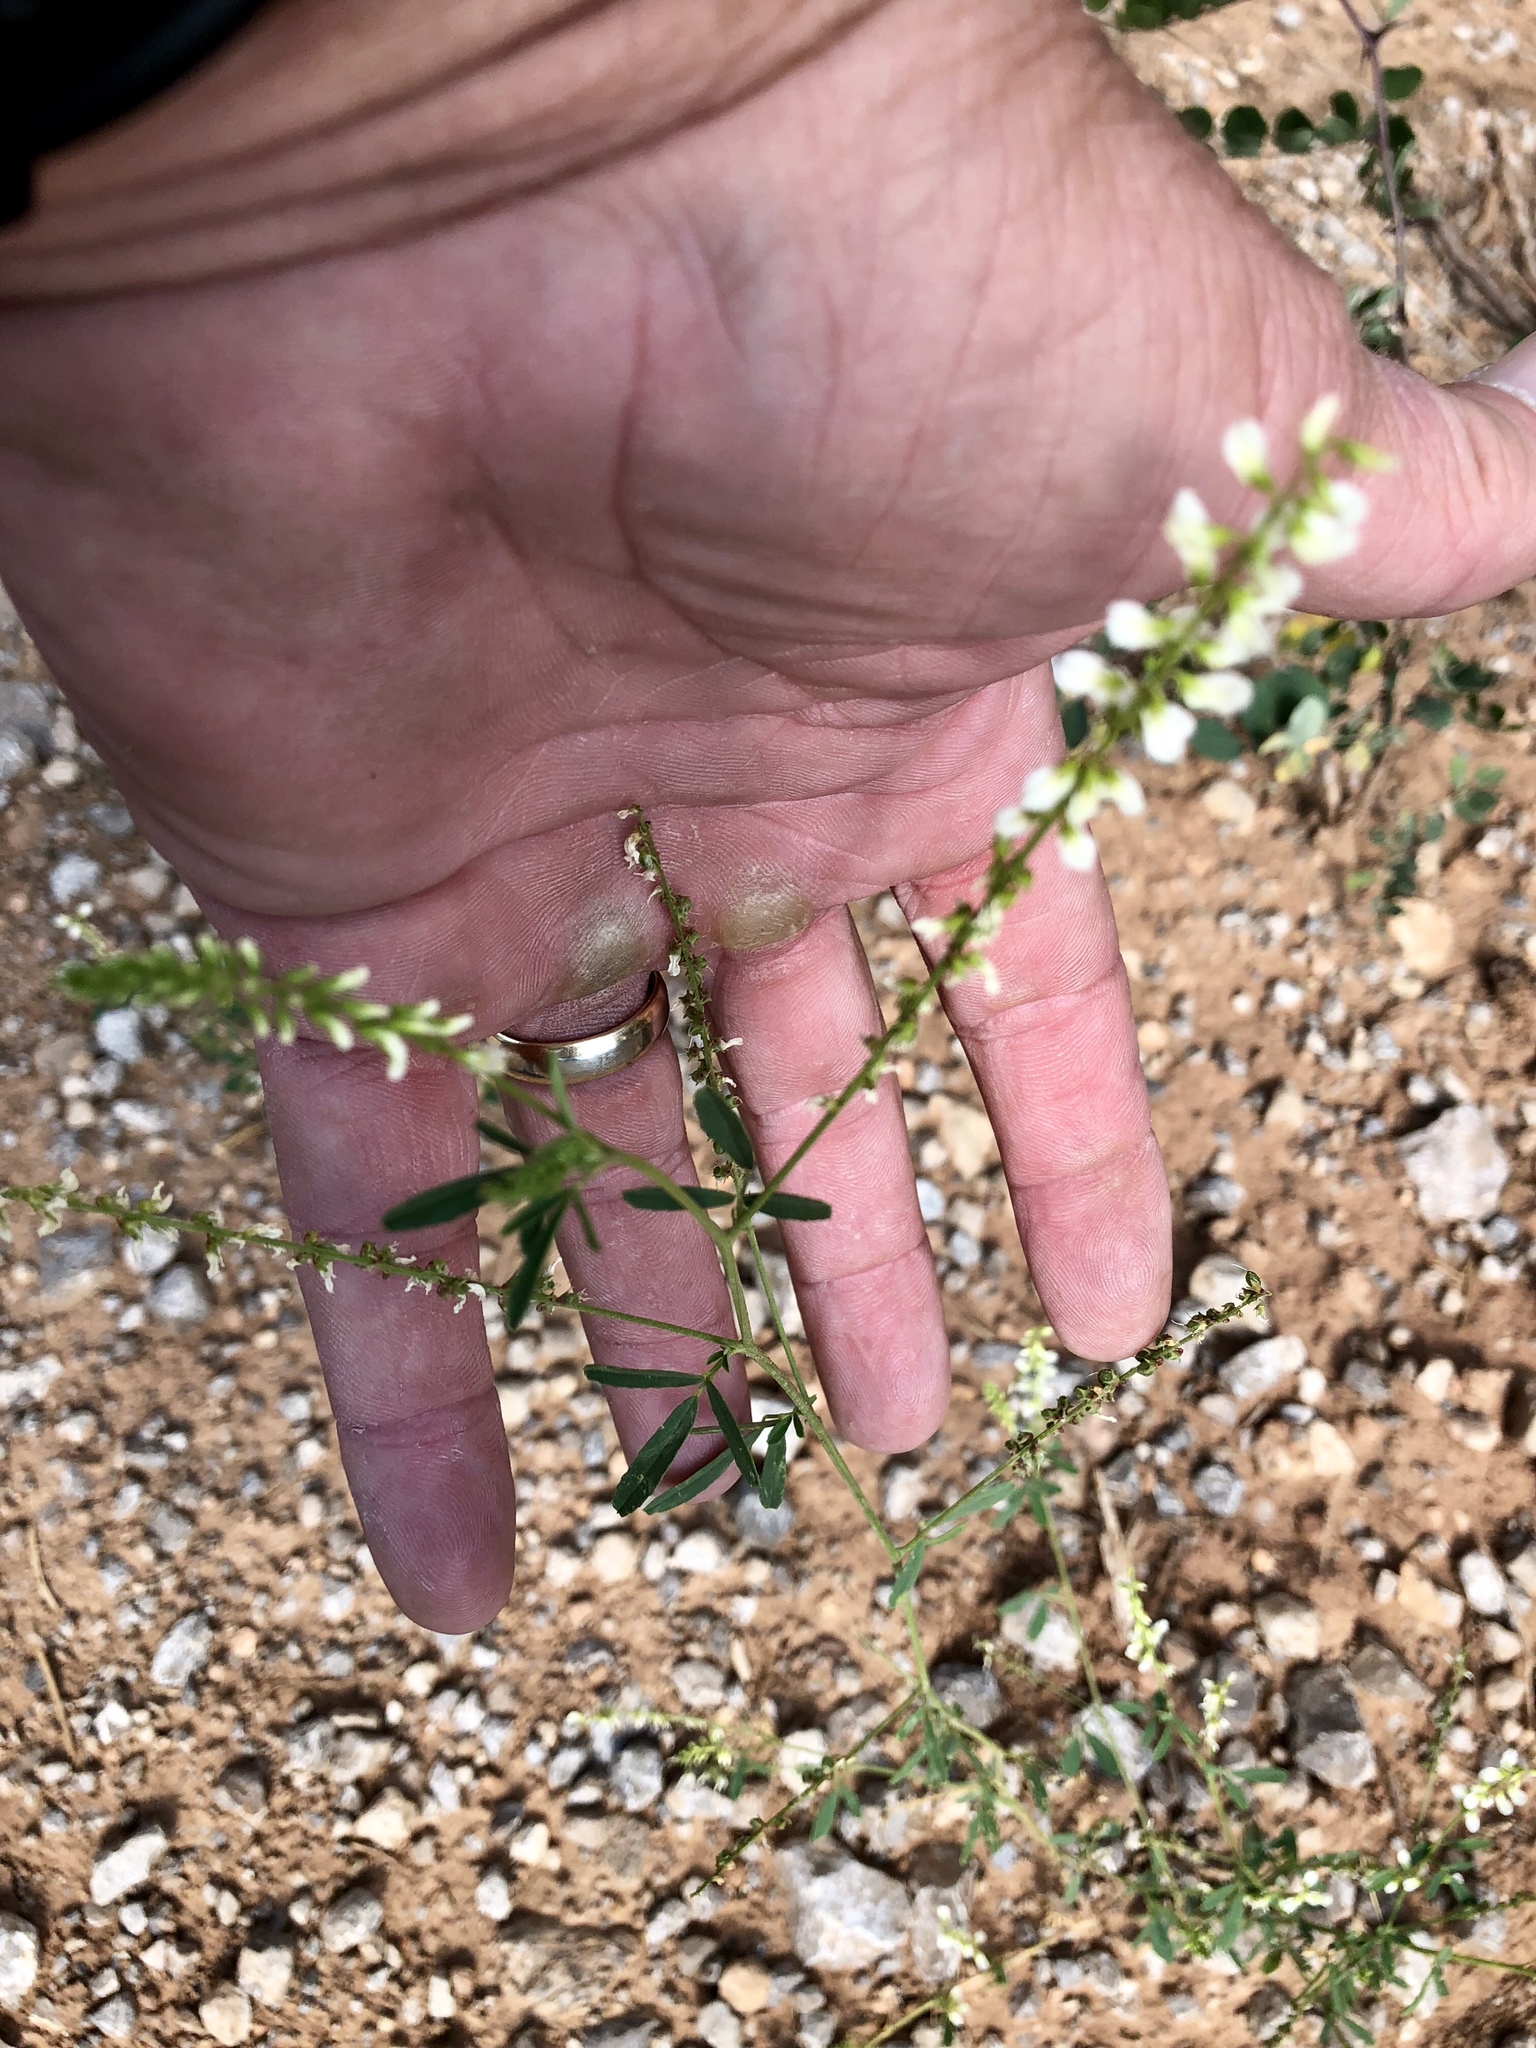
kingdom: Plantae
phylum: Tracheophyta
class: Magnoliopsida
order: Fabales
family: Fabaceae
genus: Melilotus
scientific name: Melilotus albus
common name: White melilot
